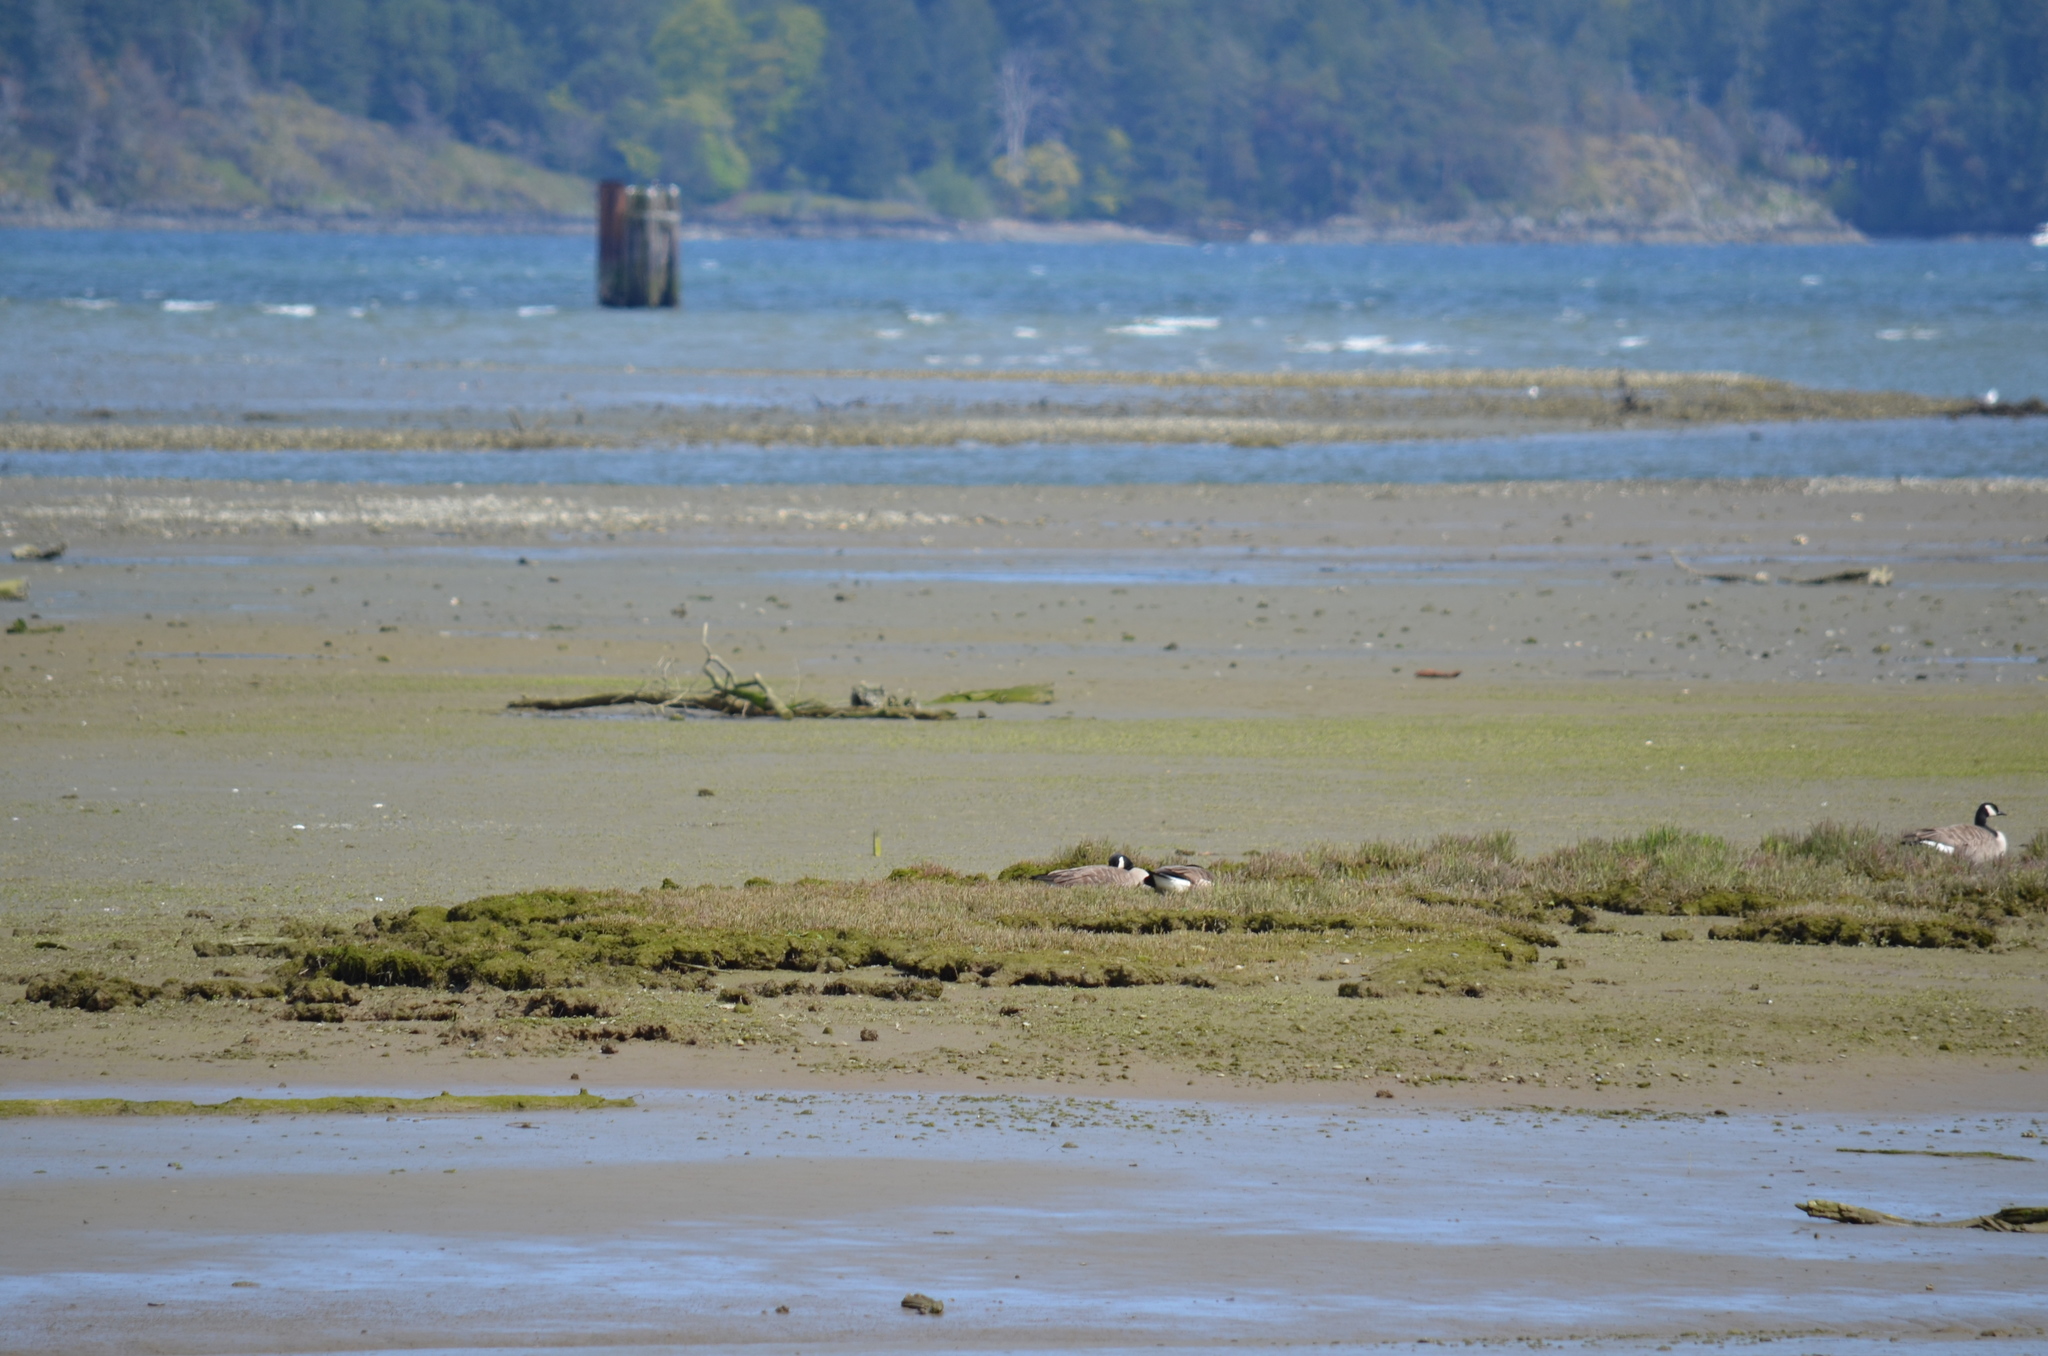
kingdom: Animalia
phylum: Chordata
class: Aves
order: Anseriformes
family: Anatidae
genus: Branta
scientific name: Branta canadensis
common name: Canada goose
